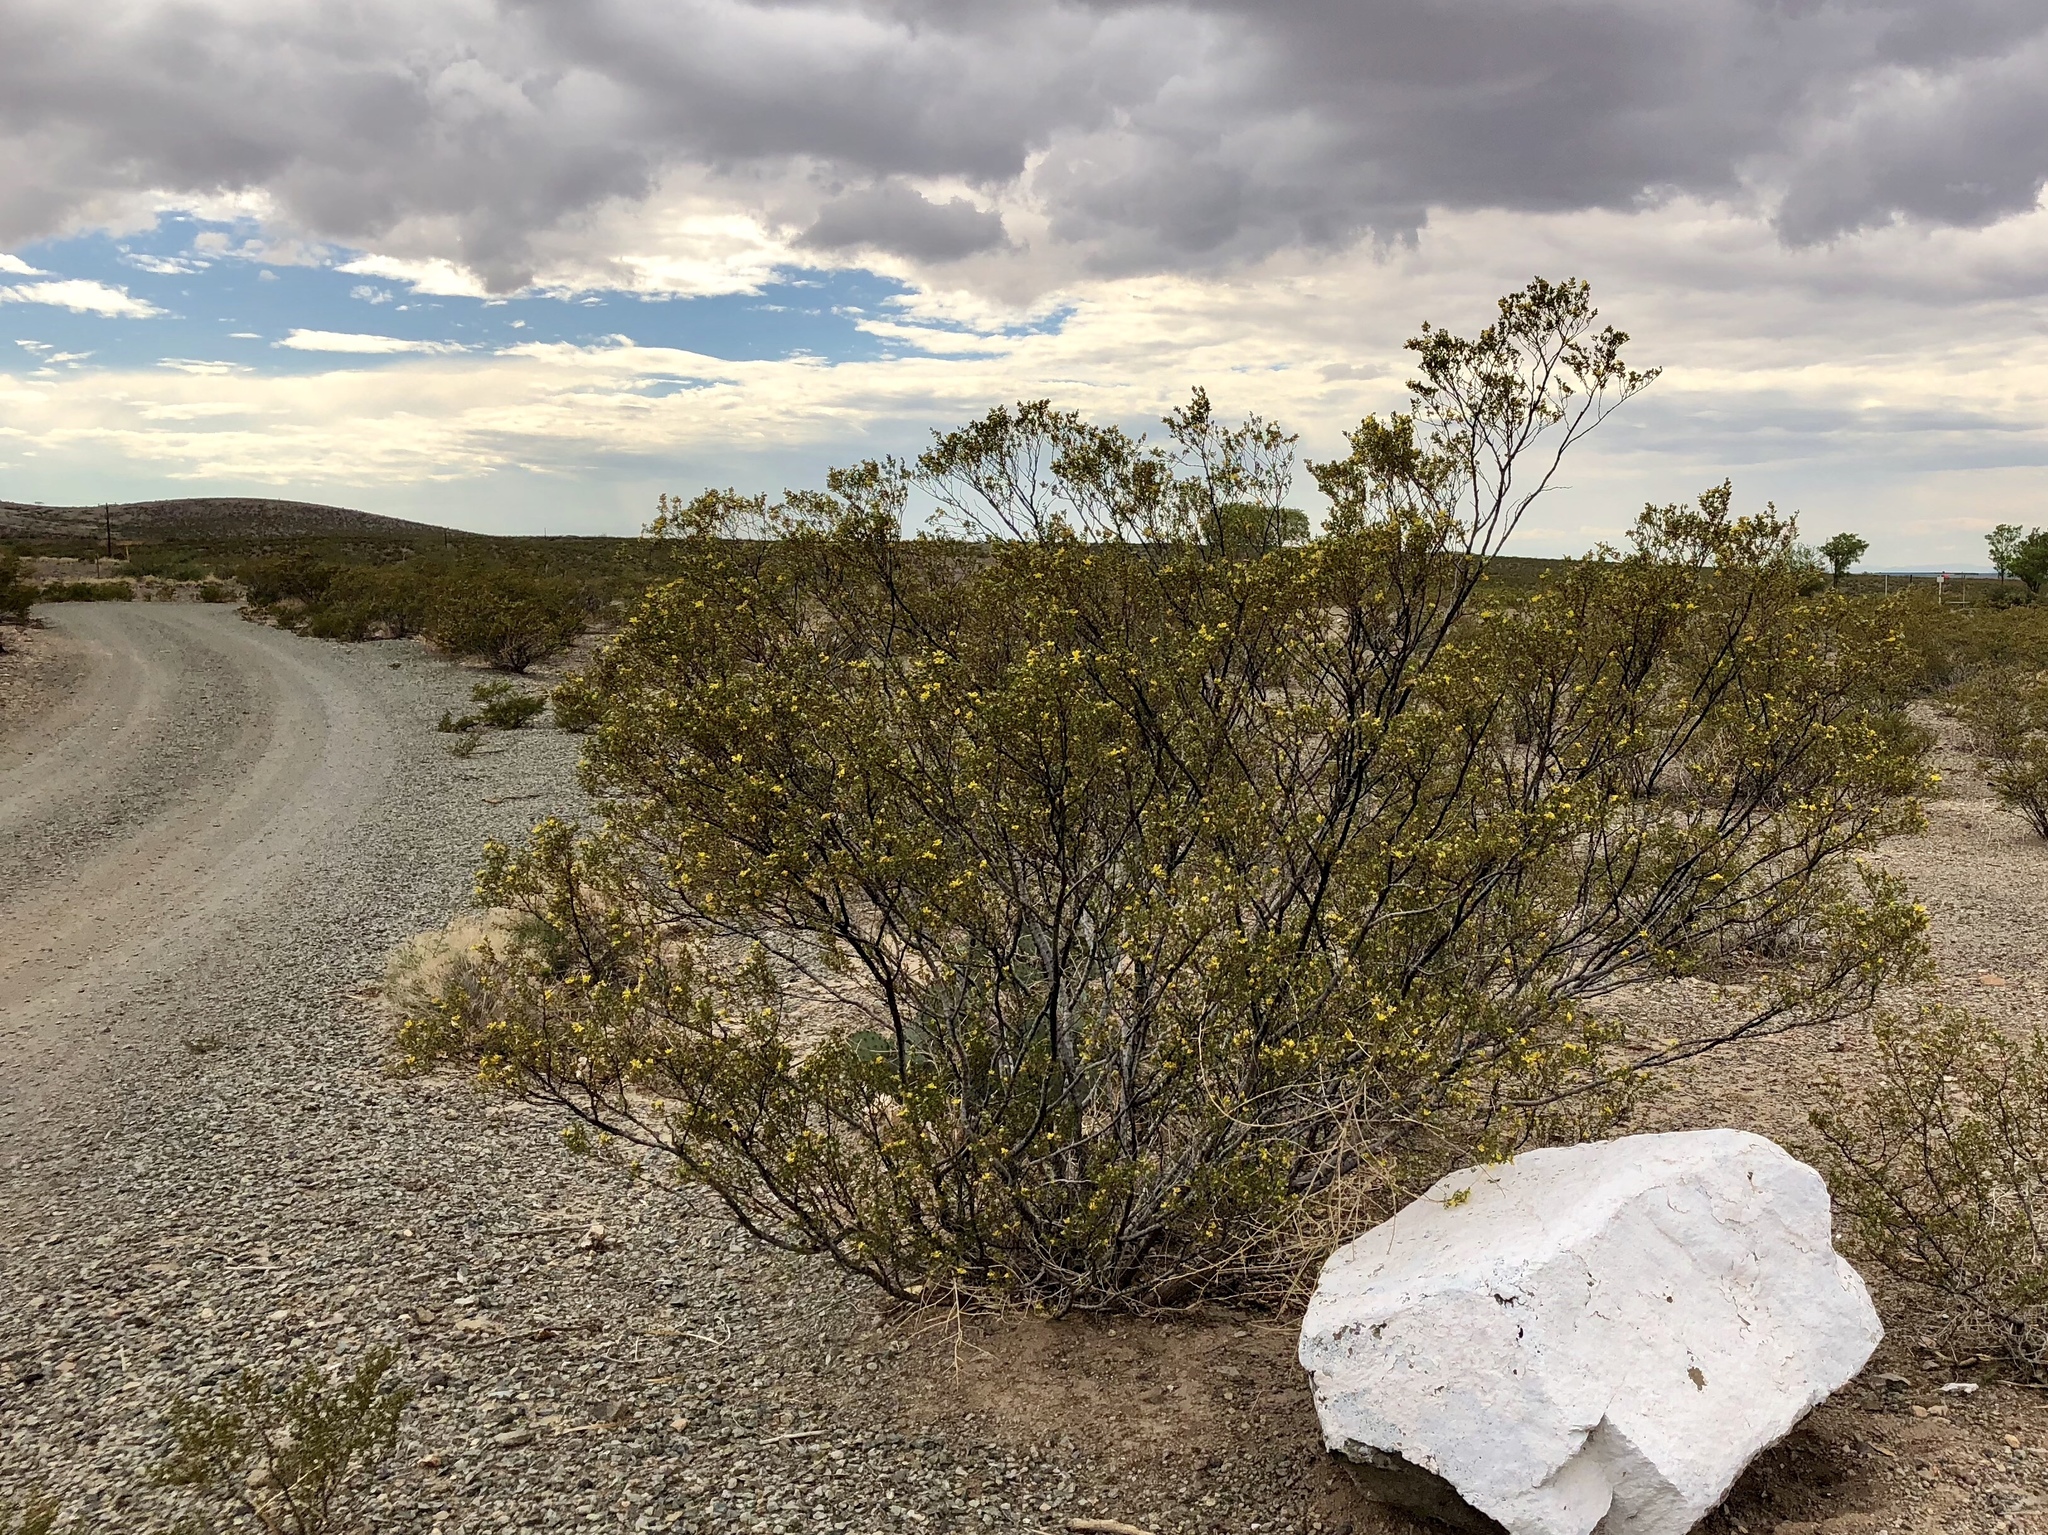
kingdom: Plantae
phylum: Tracheophyta
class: Magnoliopsida
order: Zygophyllales
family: Zygophyllaceae
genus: Larrea
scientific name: Larrea tridentata
